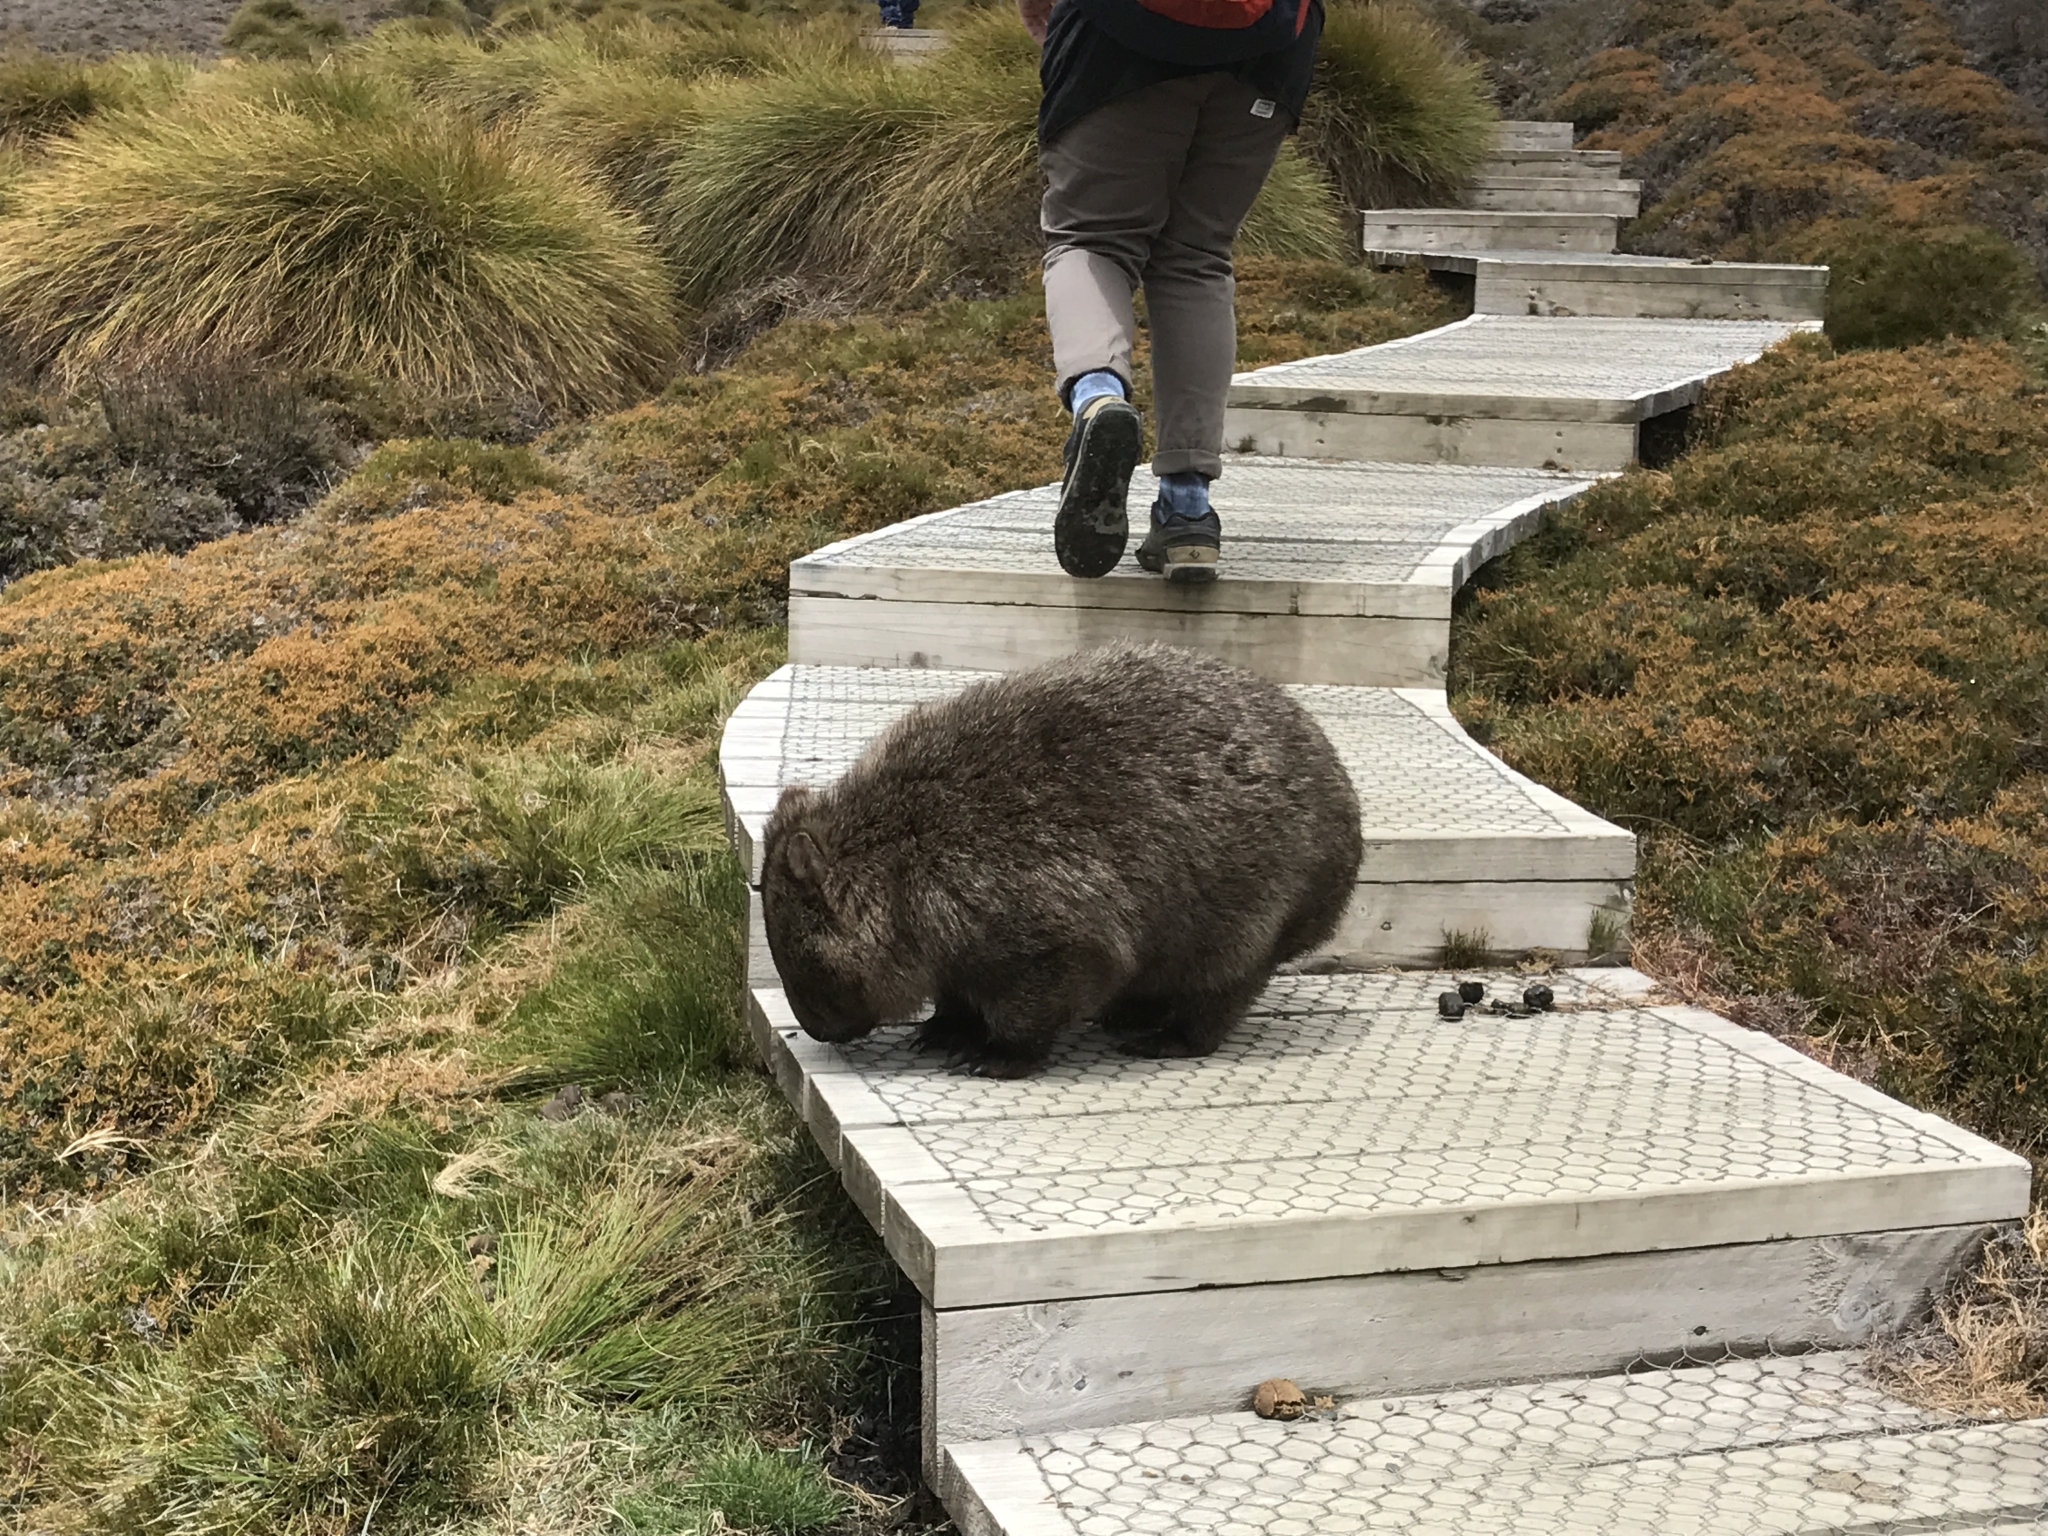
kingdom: Animalia
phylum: Chordata
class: Mammalia
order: Diprotodontia
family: Vombatidae
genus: Vombatus
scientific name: Vombatus ursinus
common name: Common wombat
